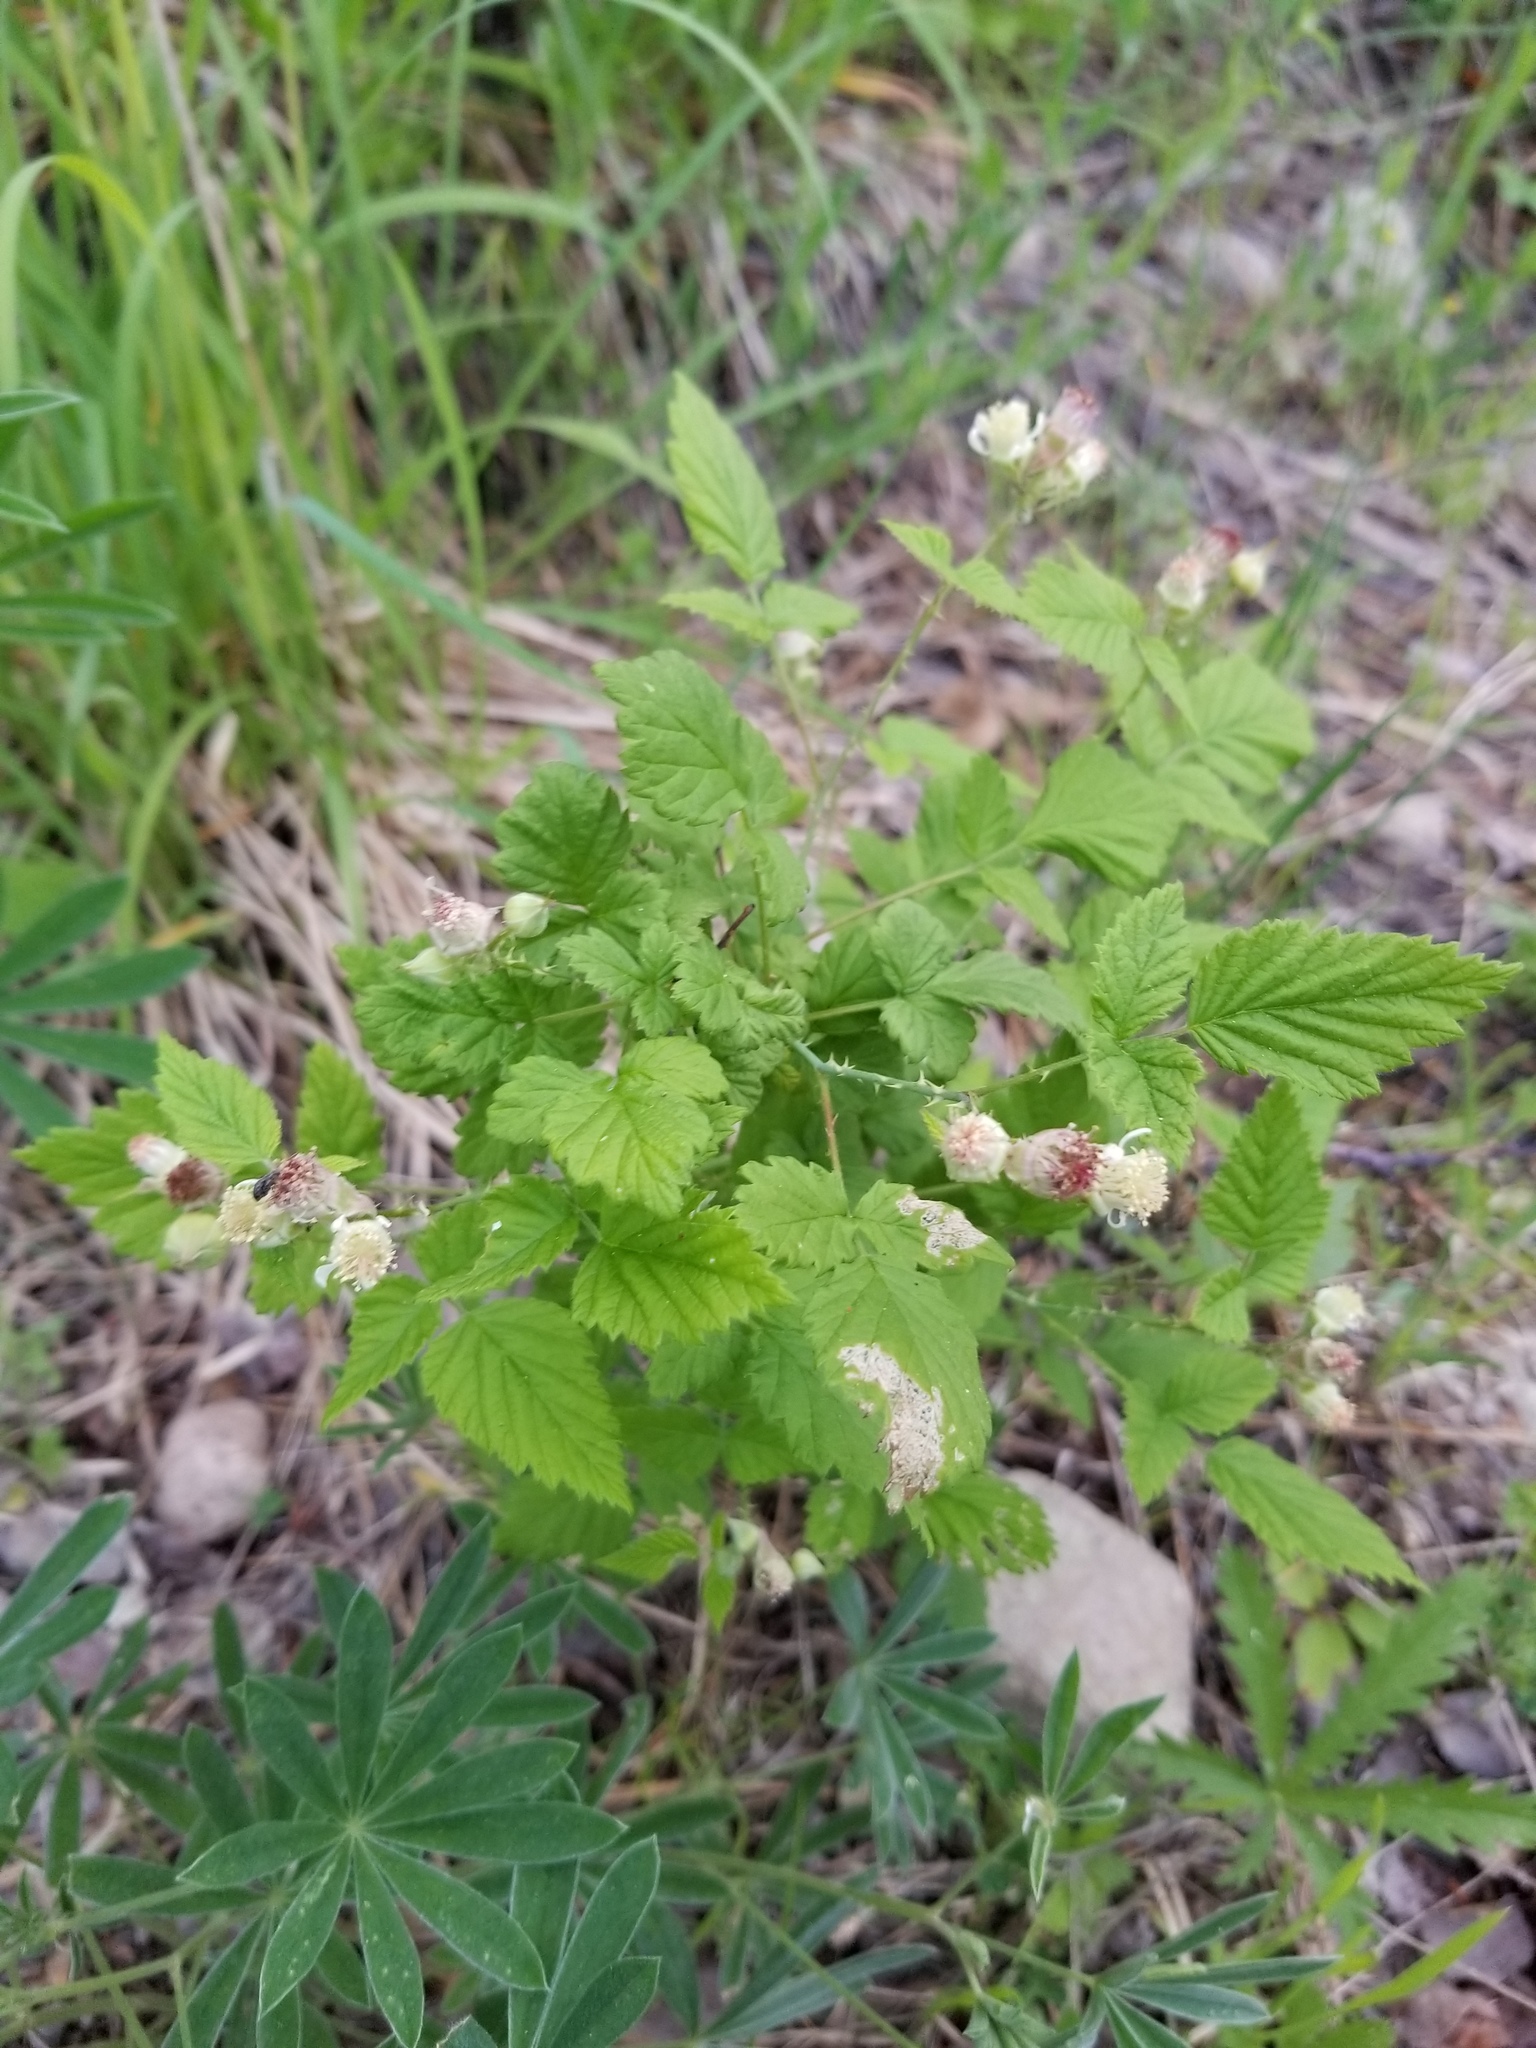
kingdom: Plantae
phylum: Tracheophyta
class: Magnoliopsida
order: Rosales
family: Rosaceae
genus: Rubus
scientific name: Rubus idaeus
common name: Raspberry
